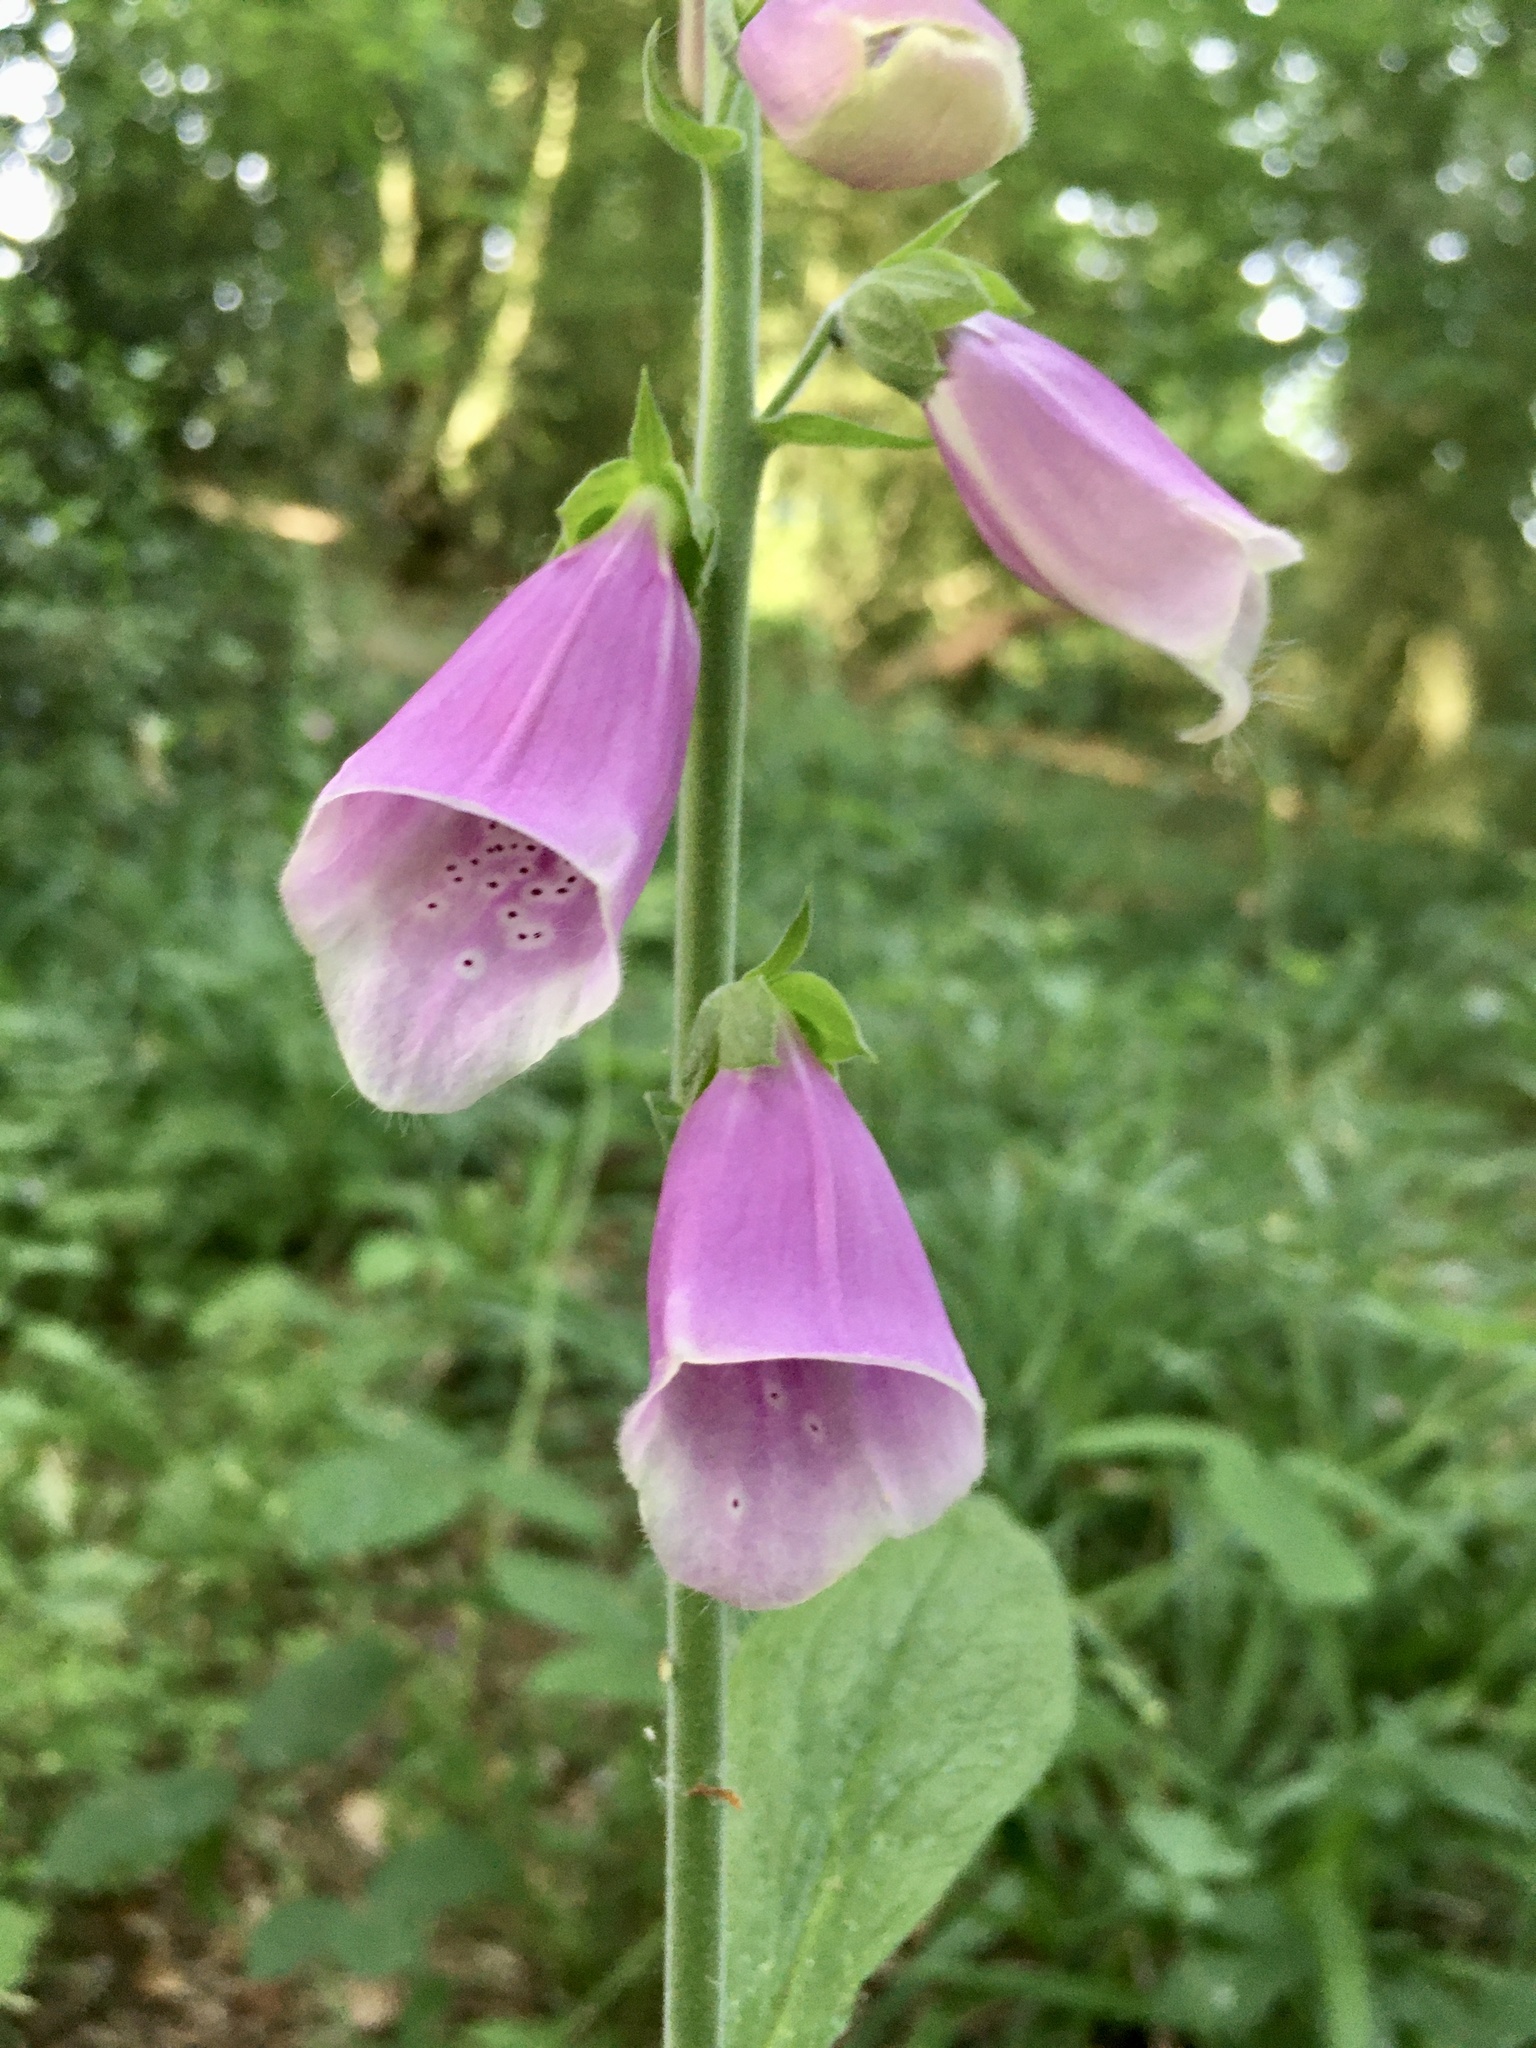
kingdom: Plantae
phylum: Tracheophyta
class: Magnoliopsida
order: Lamiales
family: Plantaginaceae
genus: Digitalis
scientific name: Digitalis purpurea
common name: Foxglove
